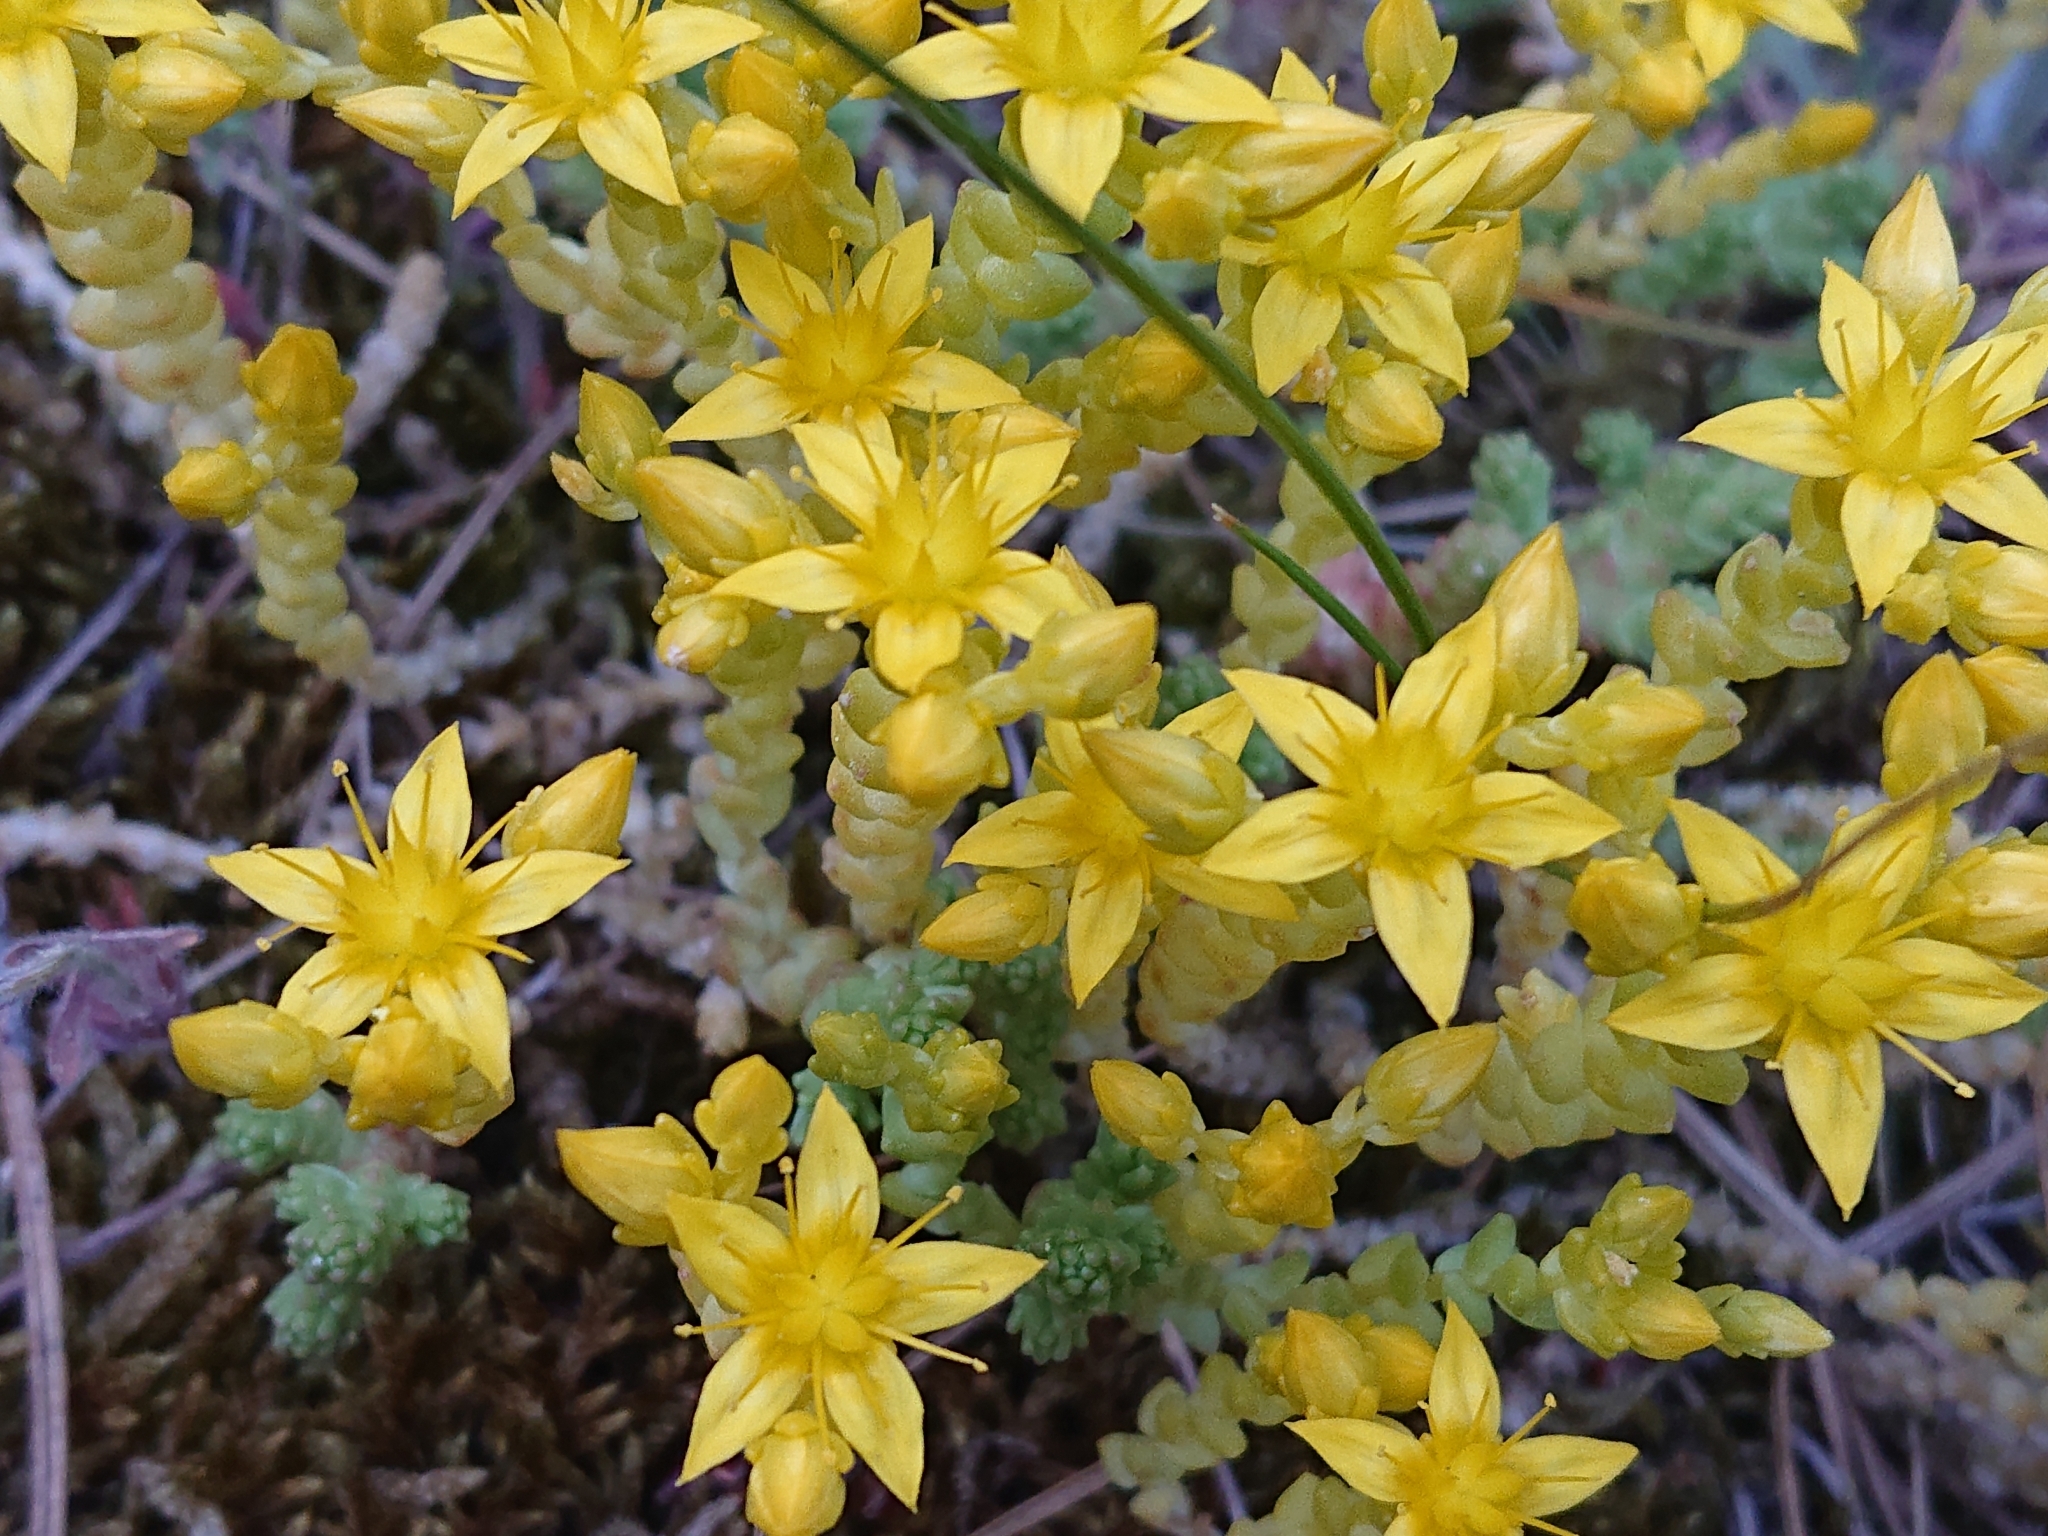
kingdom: Plantae
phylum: Tracheophyta
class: Magnoliopsida
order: Saxifragales
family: Crassulaceae
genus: Sedum
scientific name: Sedum acre
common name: Biting stonecrop
